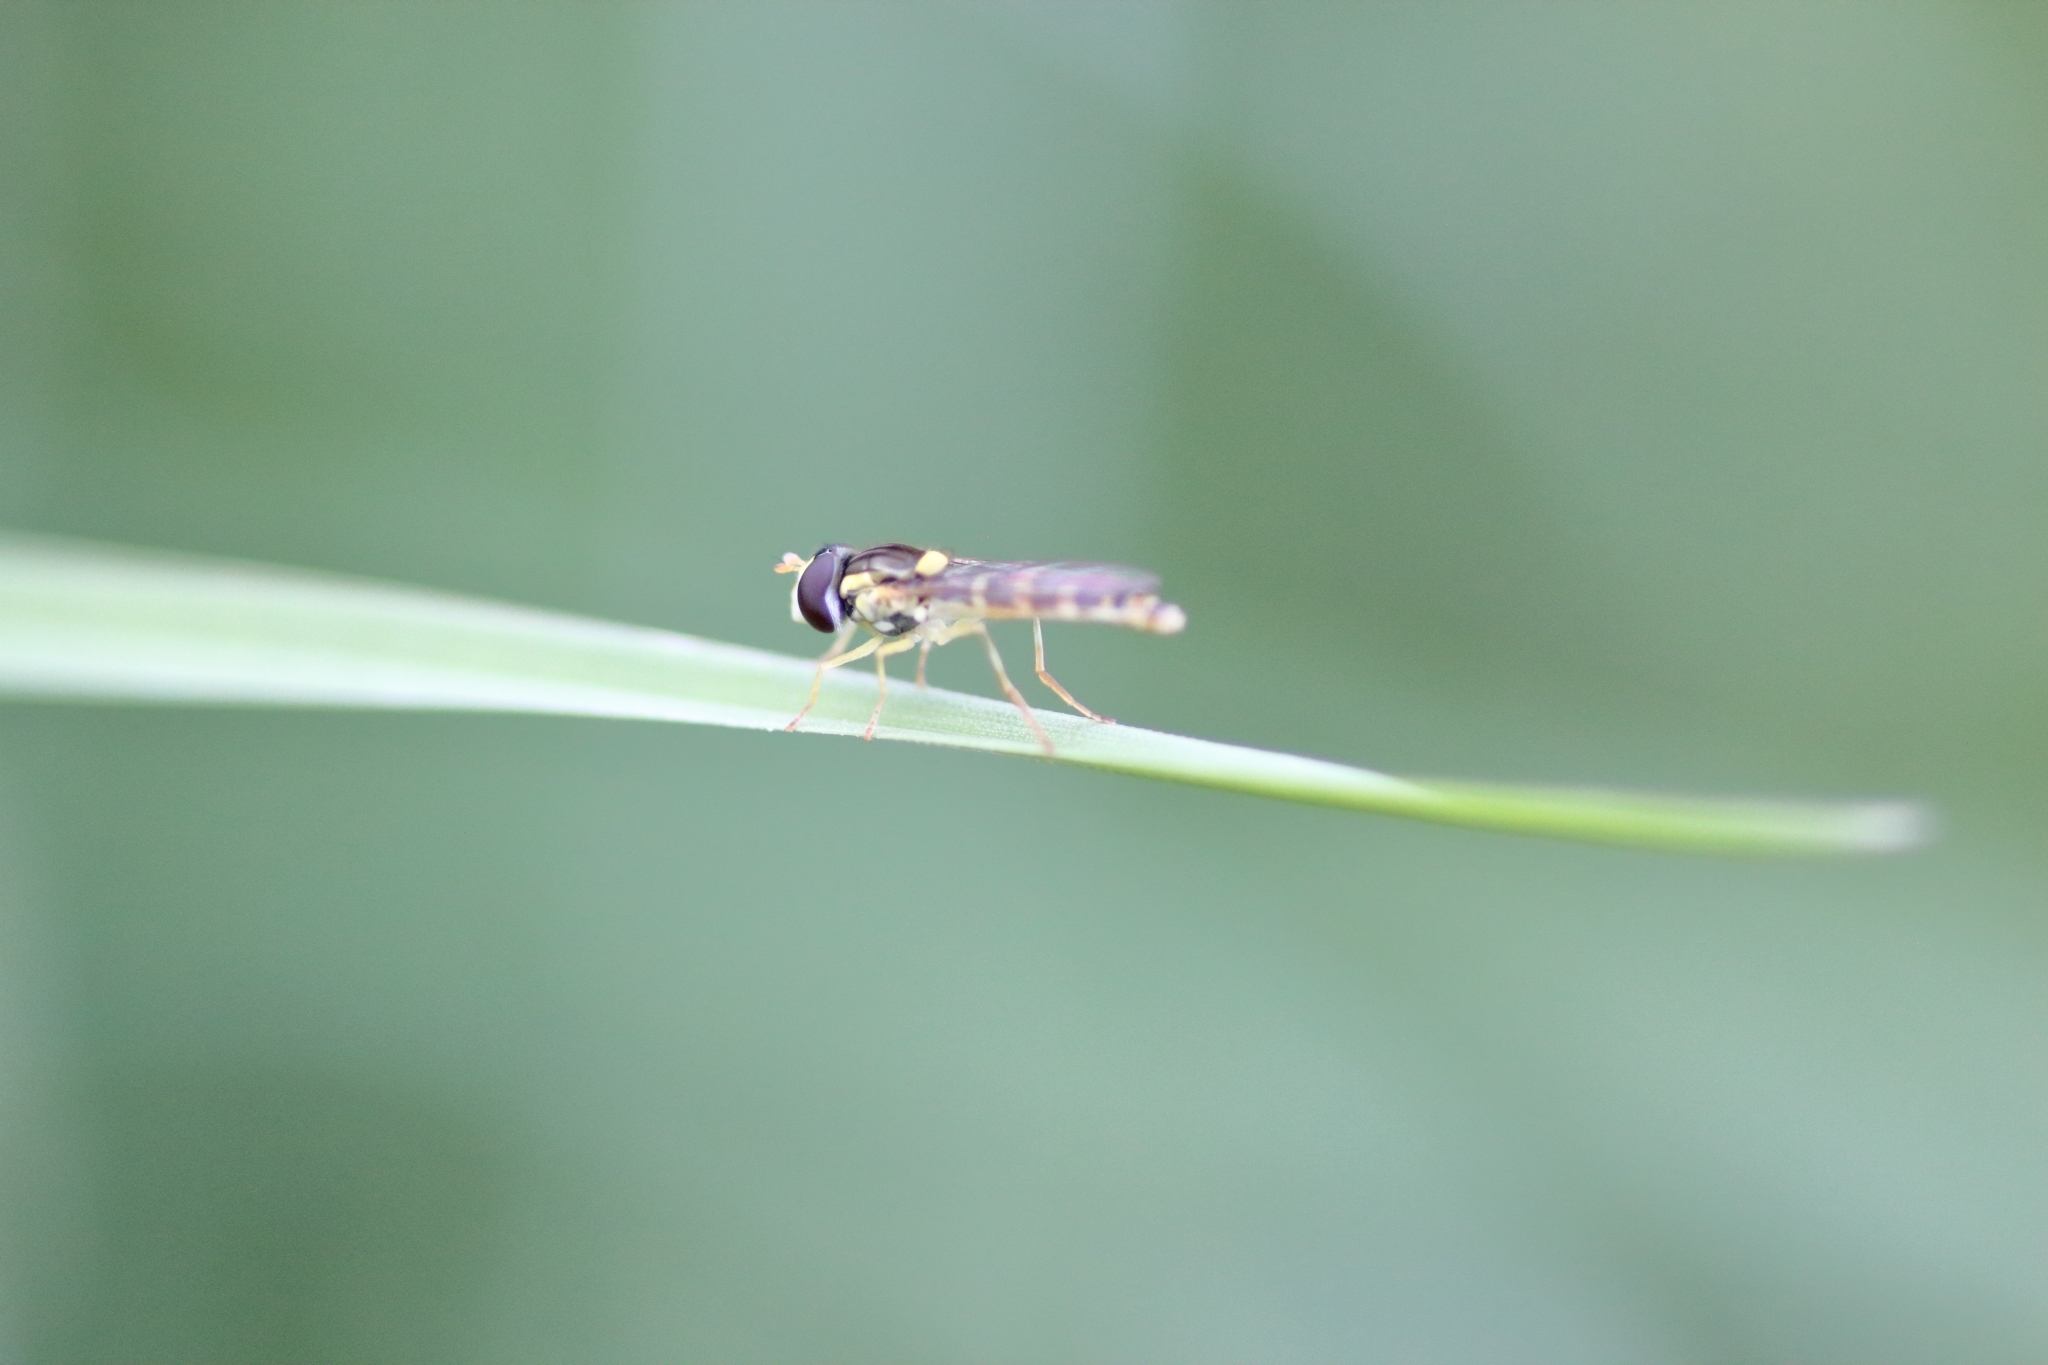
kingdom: Animalia
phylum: Arthropoda
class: Insecta
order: Diptera
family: Syrphidae
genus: Sphaerophoria
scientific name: Sphaerophoria
